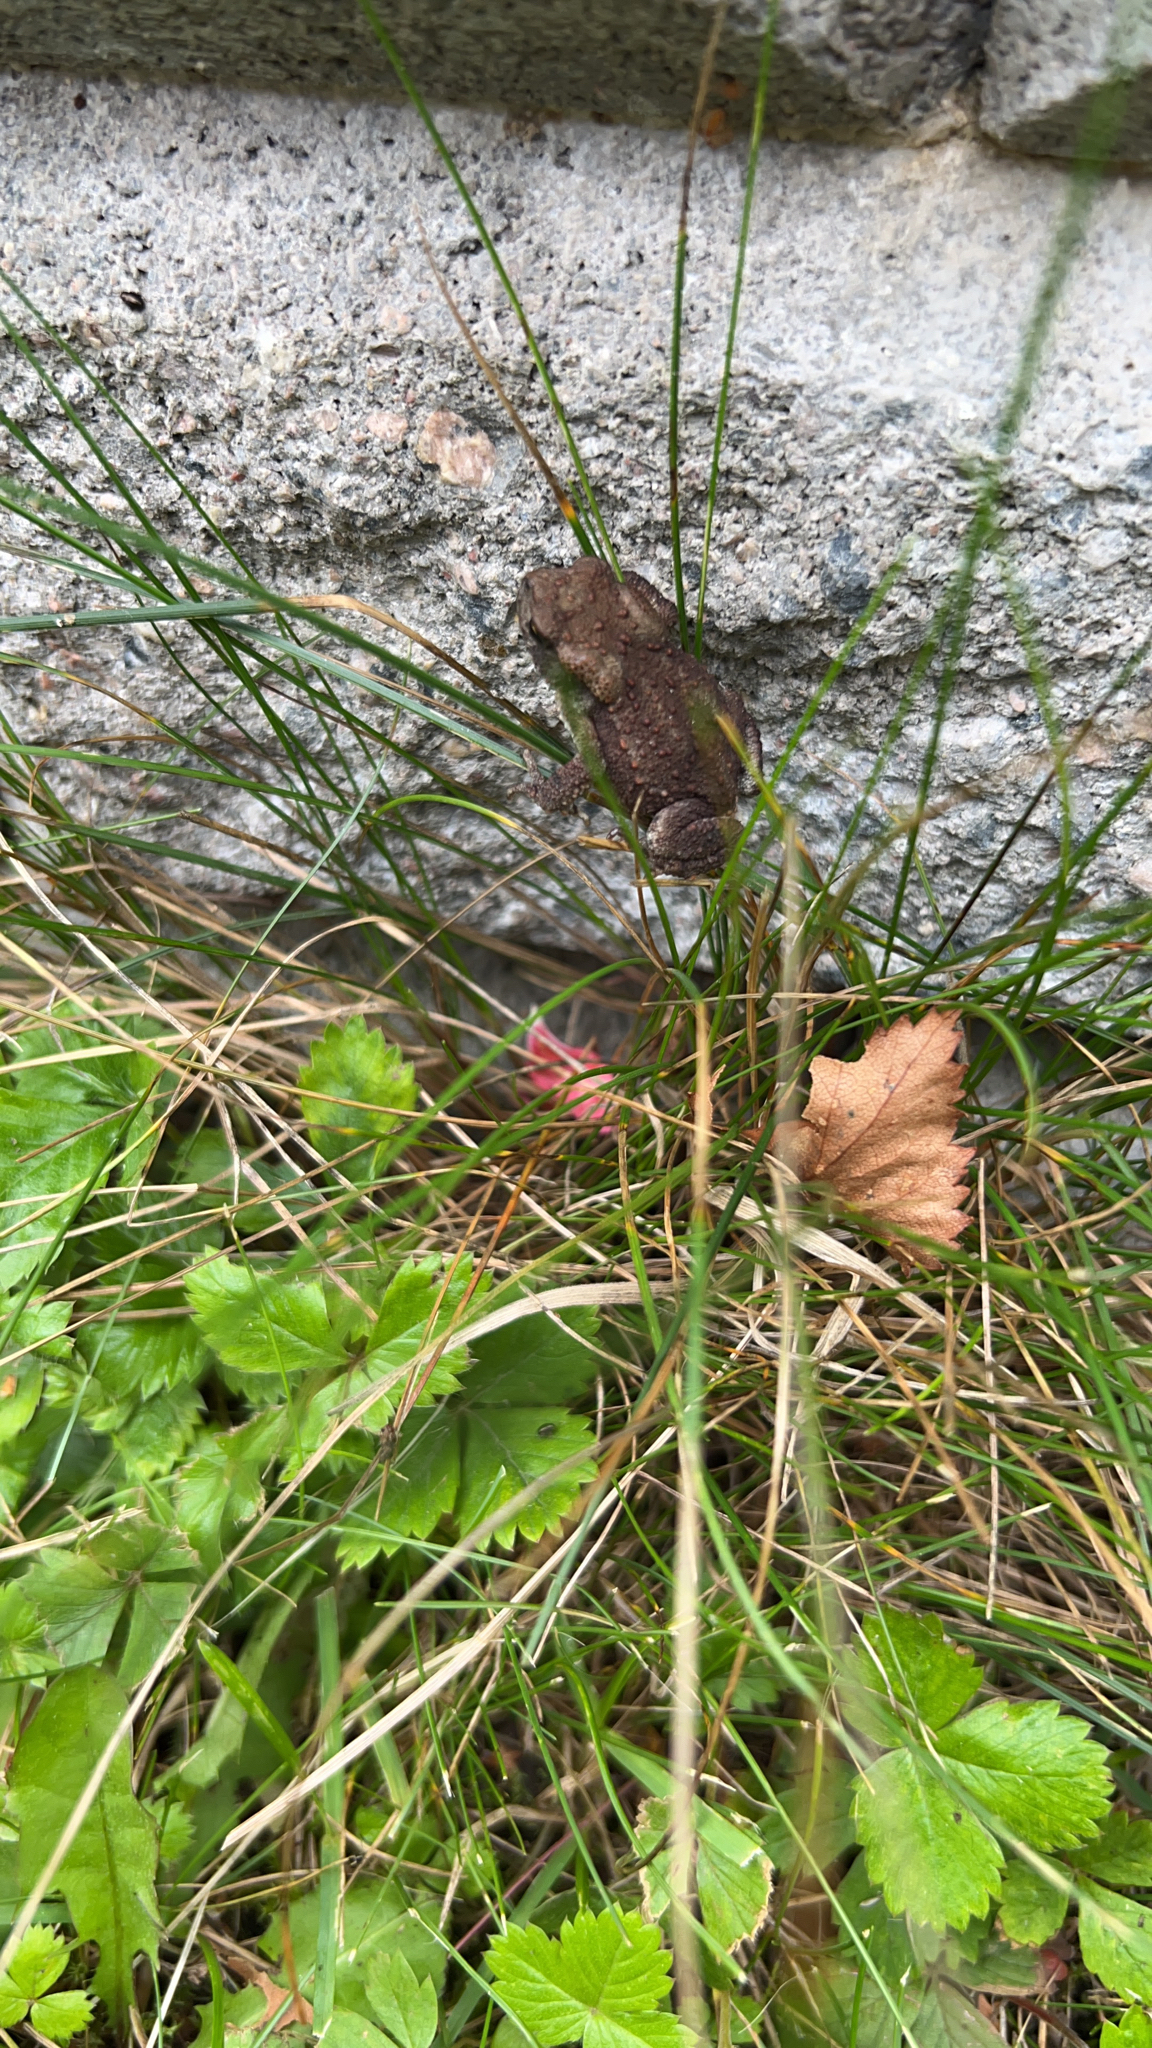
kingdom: Animalia
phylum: Chordata
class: Amphibia
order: Anura
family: Bufonidae
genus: Bufo
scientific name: Bufo bufo
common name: Common toad
